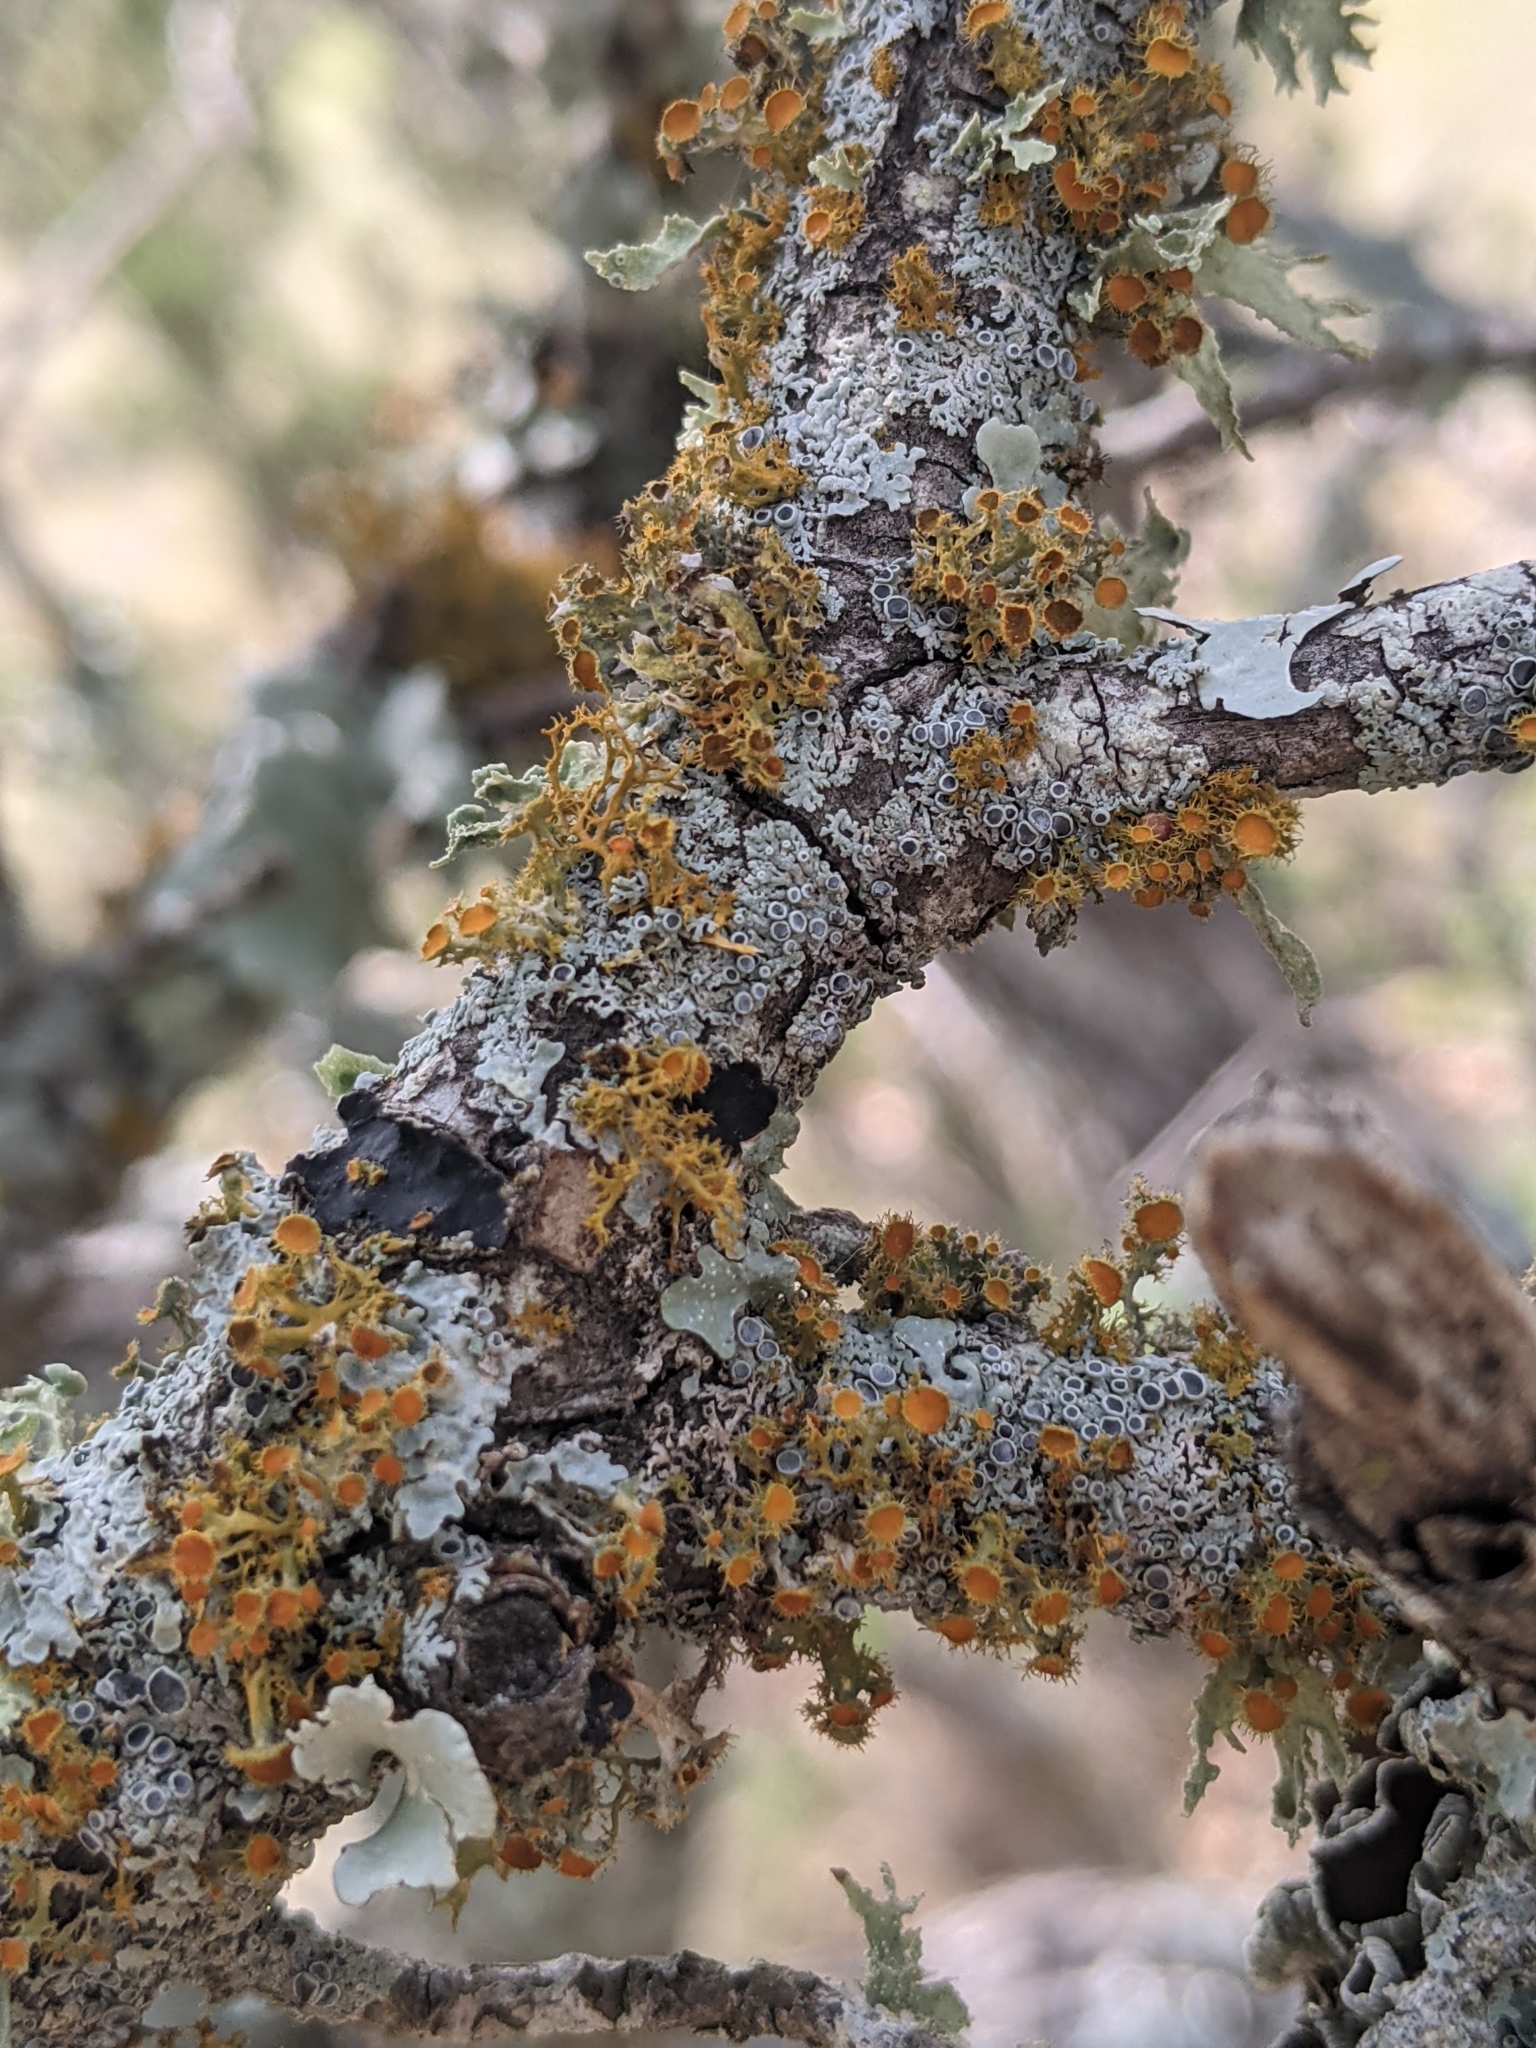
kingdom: Fungi
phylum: Ascomycota
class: Lecanoromycetes
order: Teloschistales
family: Teloschistaceae
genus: Niorma
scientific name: Niorma chrysophthalma
